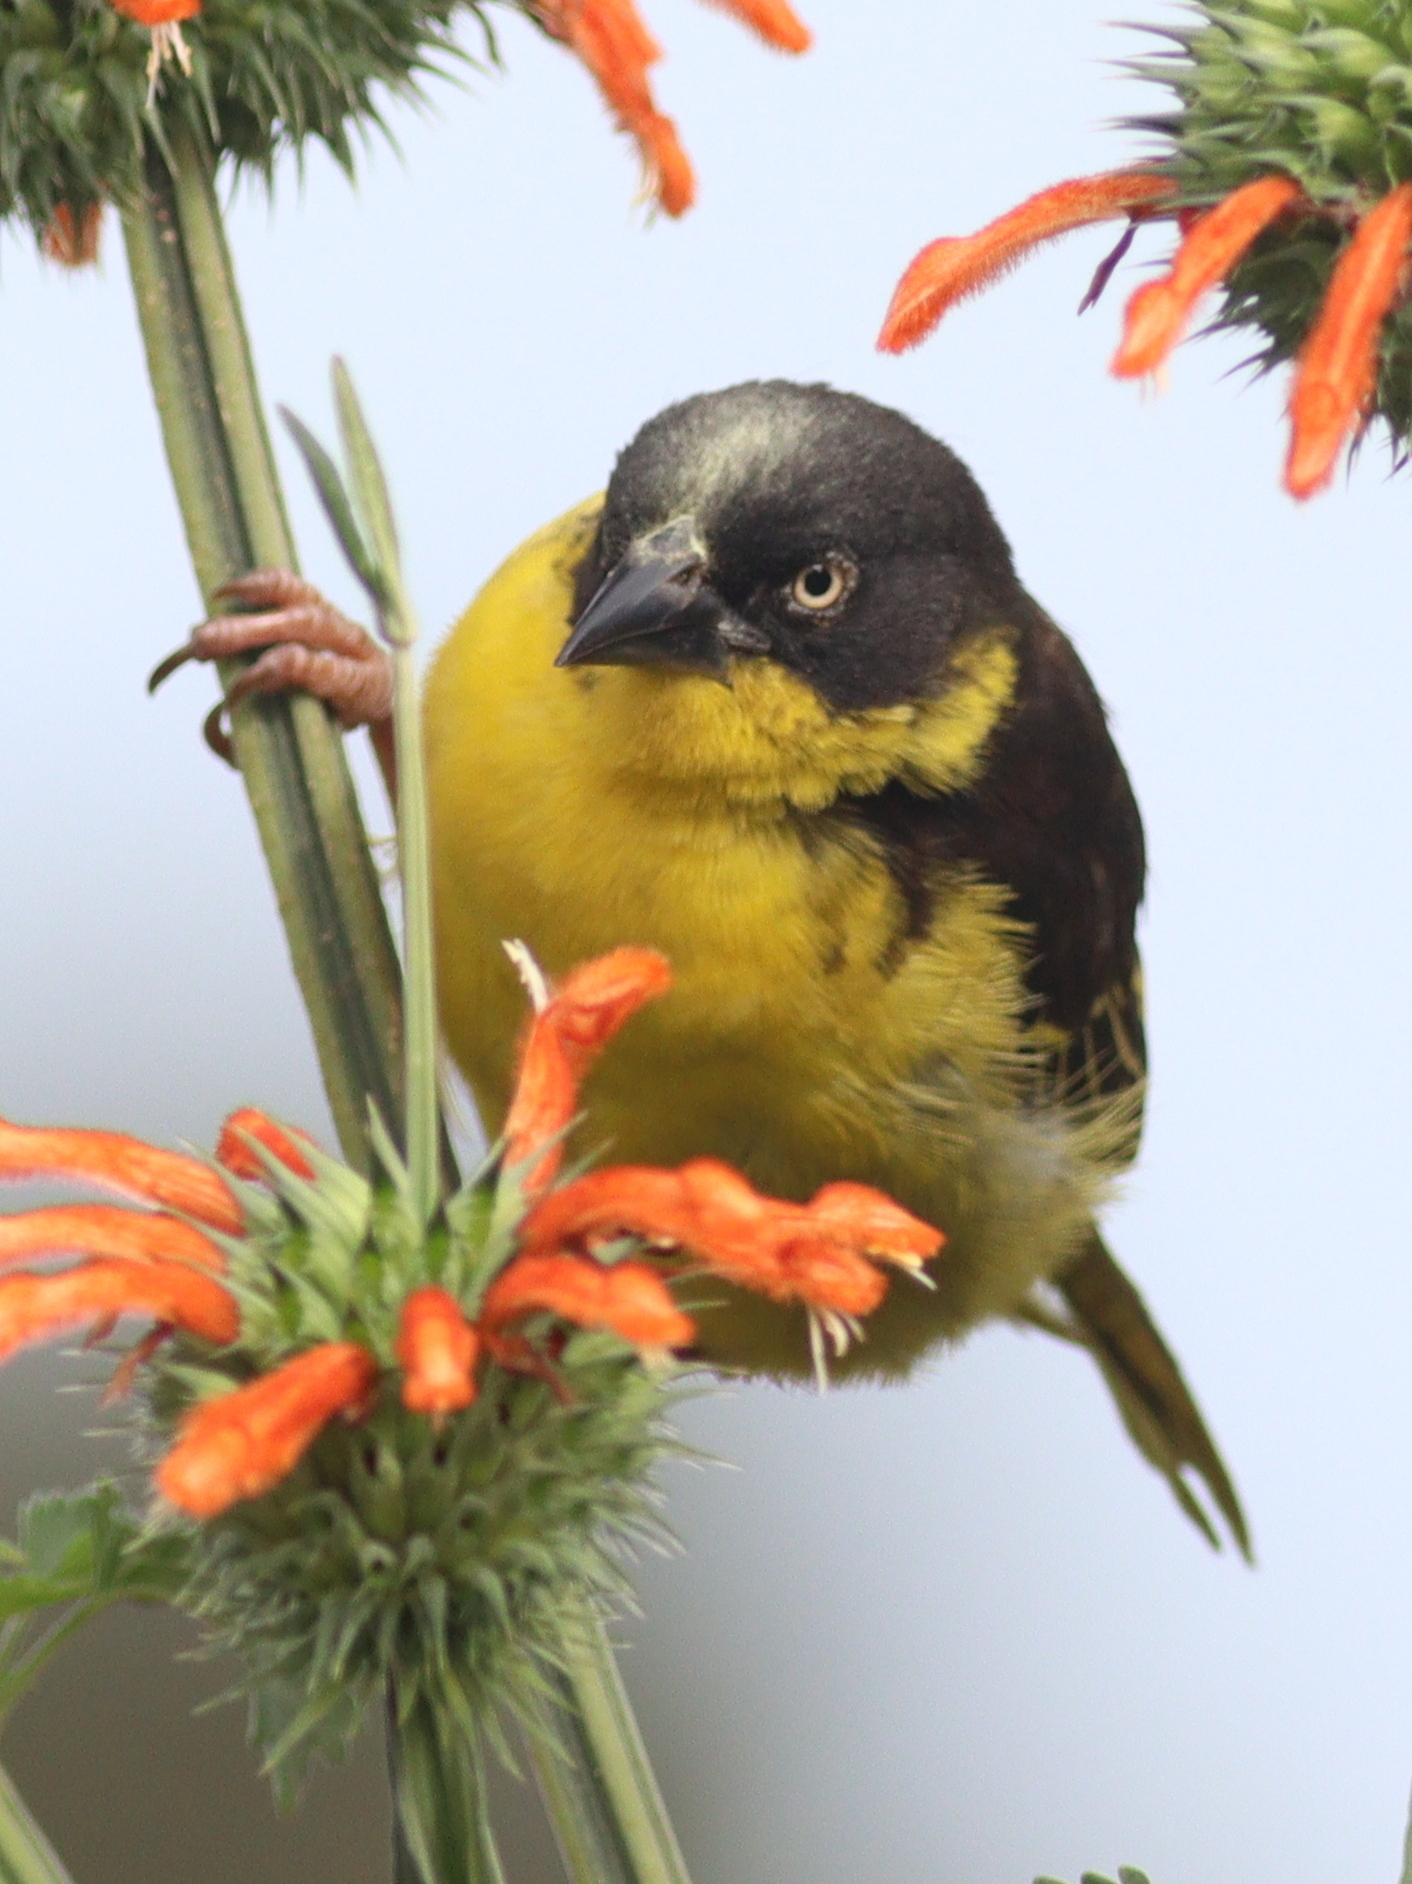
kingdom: Animalia
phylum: Chordata
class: Aves
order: Passeriformes
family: Ploceidae
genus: Ploceus
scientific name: Ploceus baglafecht
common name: Baglafecht weaver
